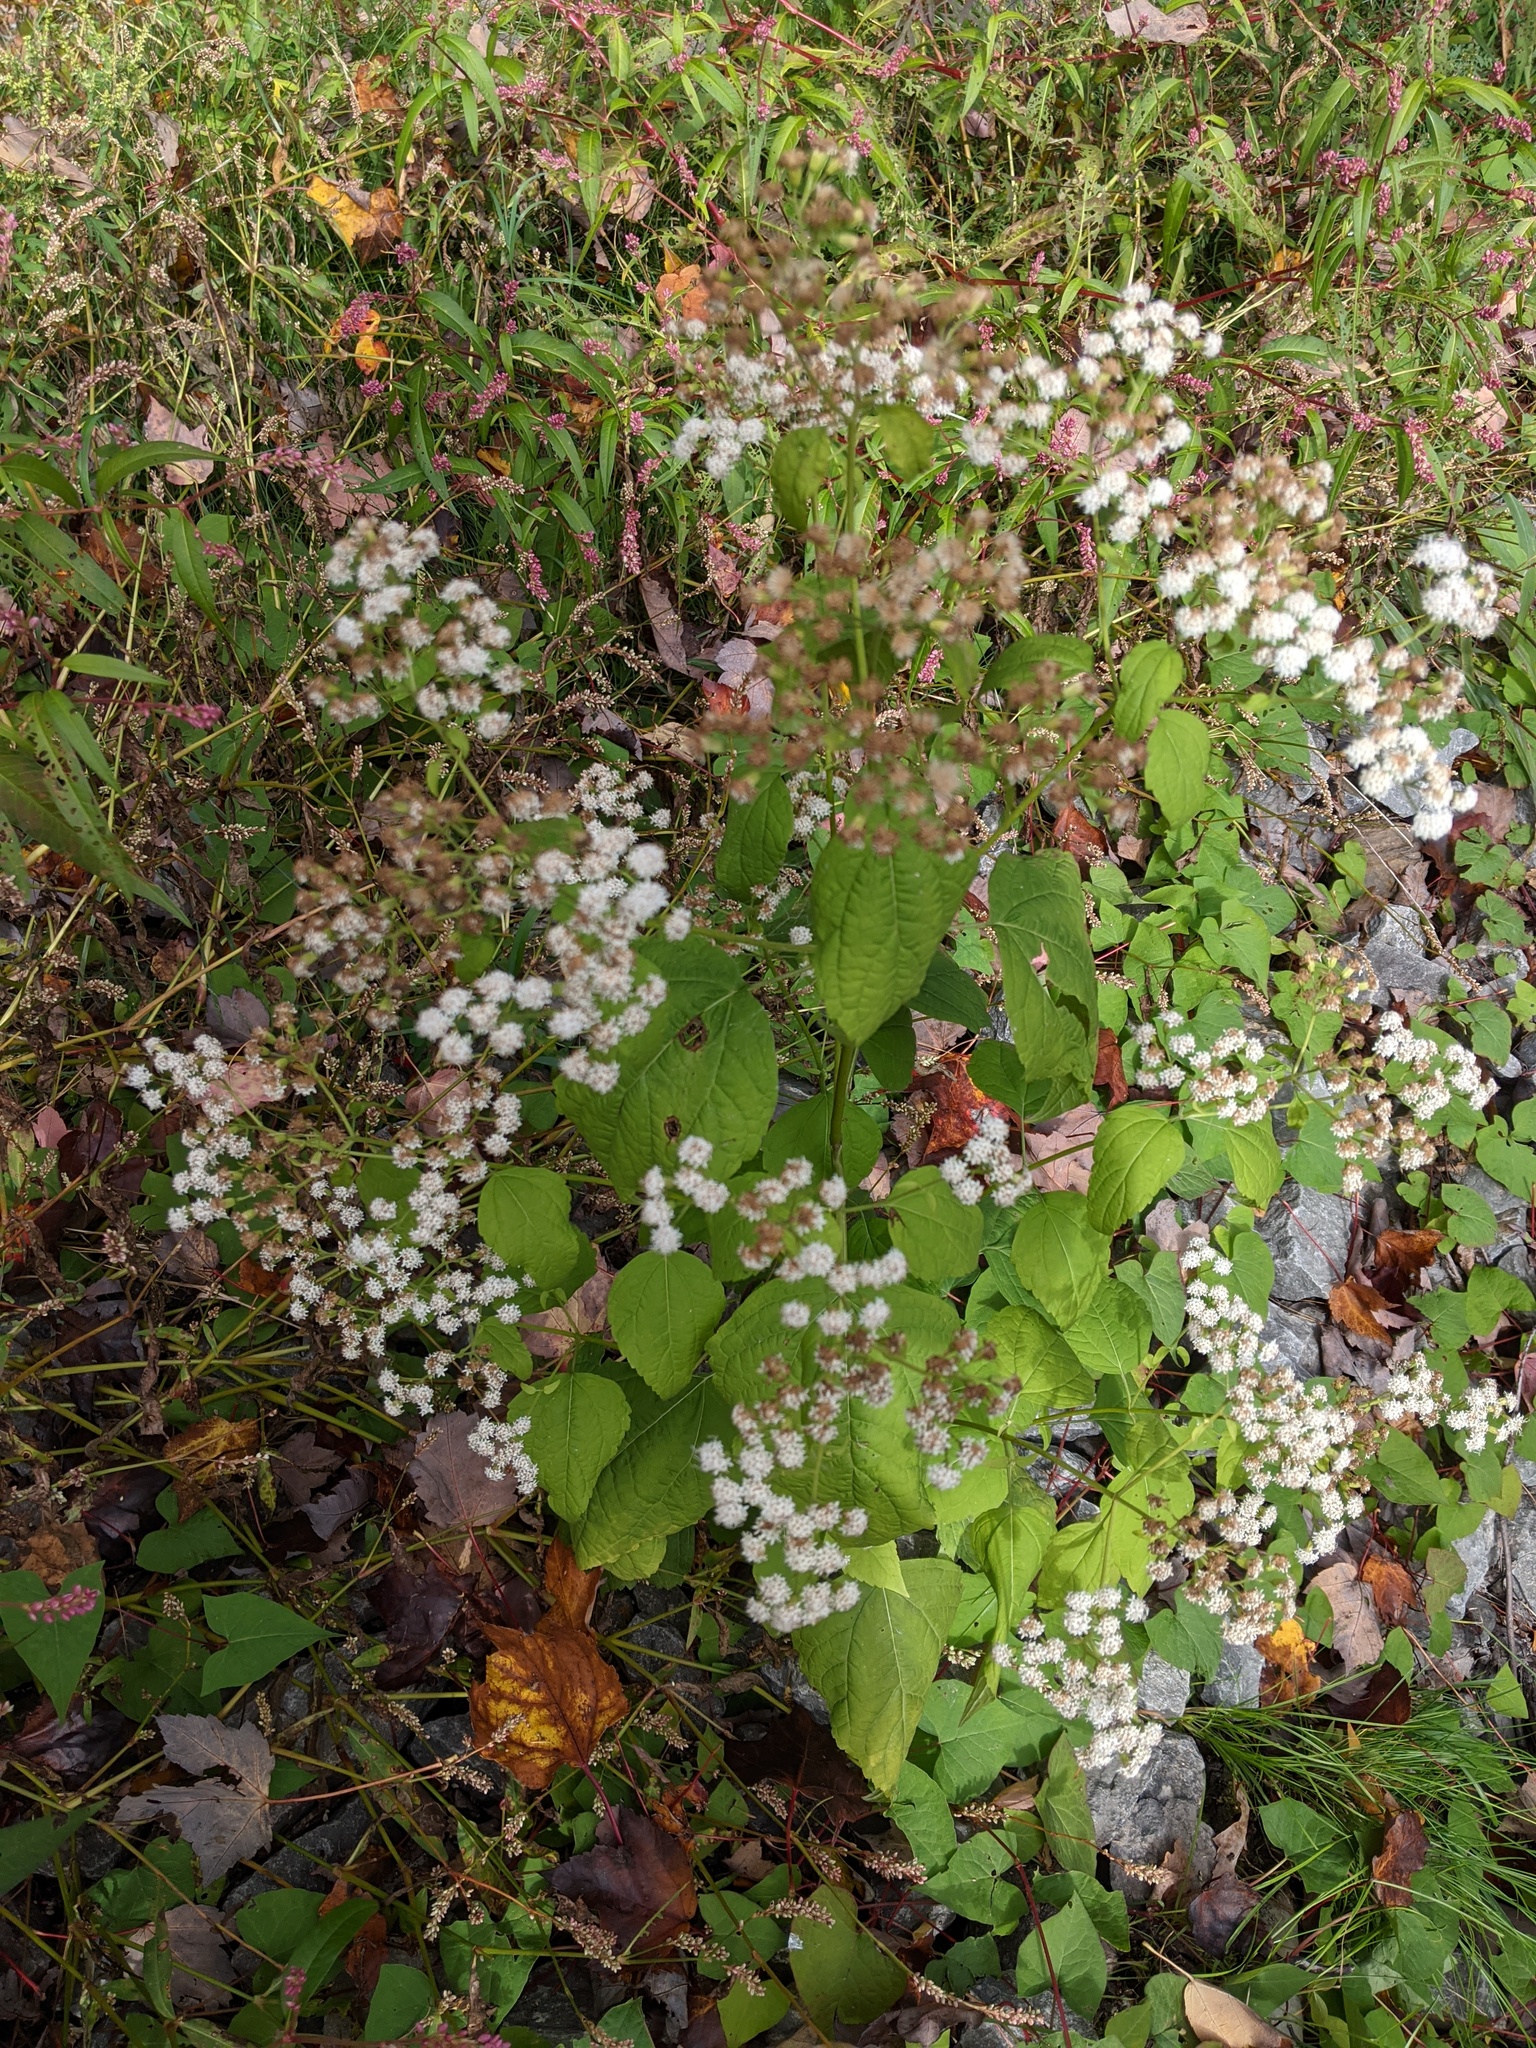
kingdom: Plantae
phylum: Tracheophyta
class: Magnoliopsida
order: Asterales
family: Asteraceae
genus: Ageratina
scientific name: Ageratina altissima
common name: White snakeroot
